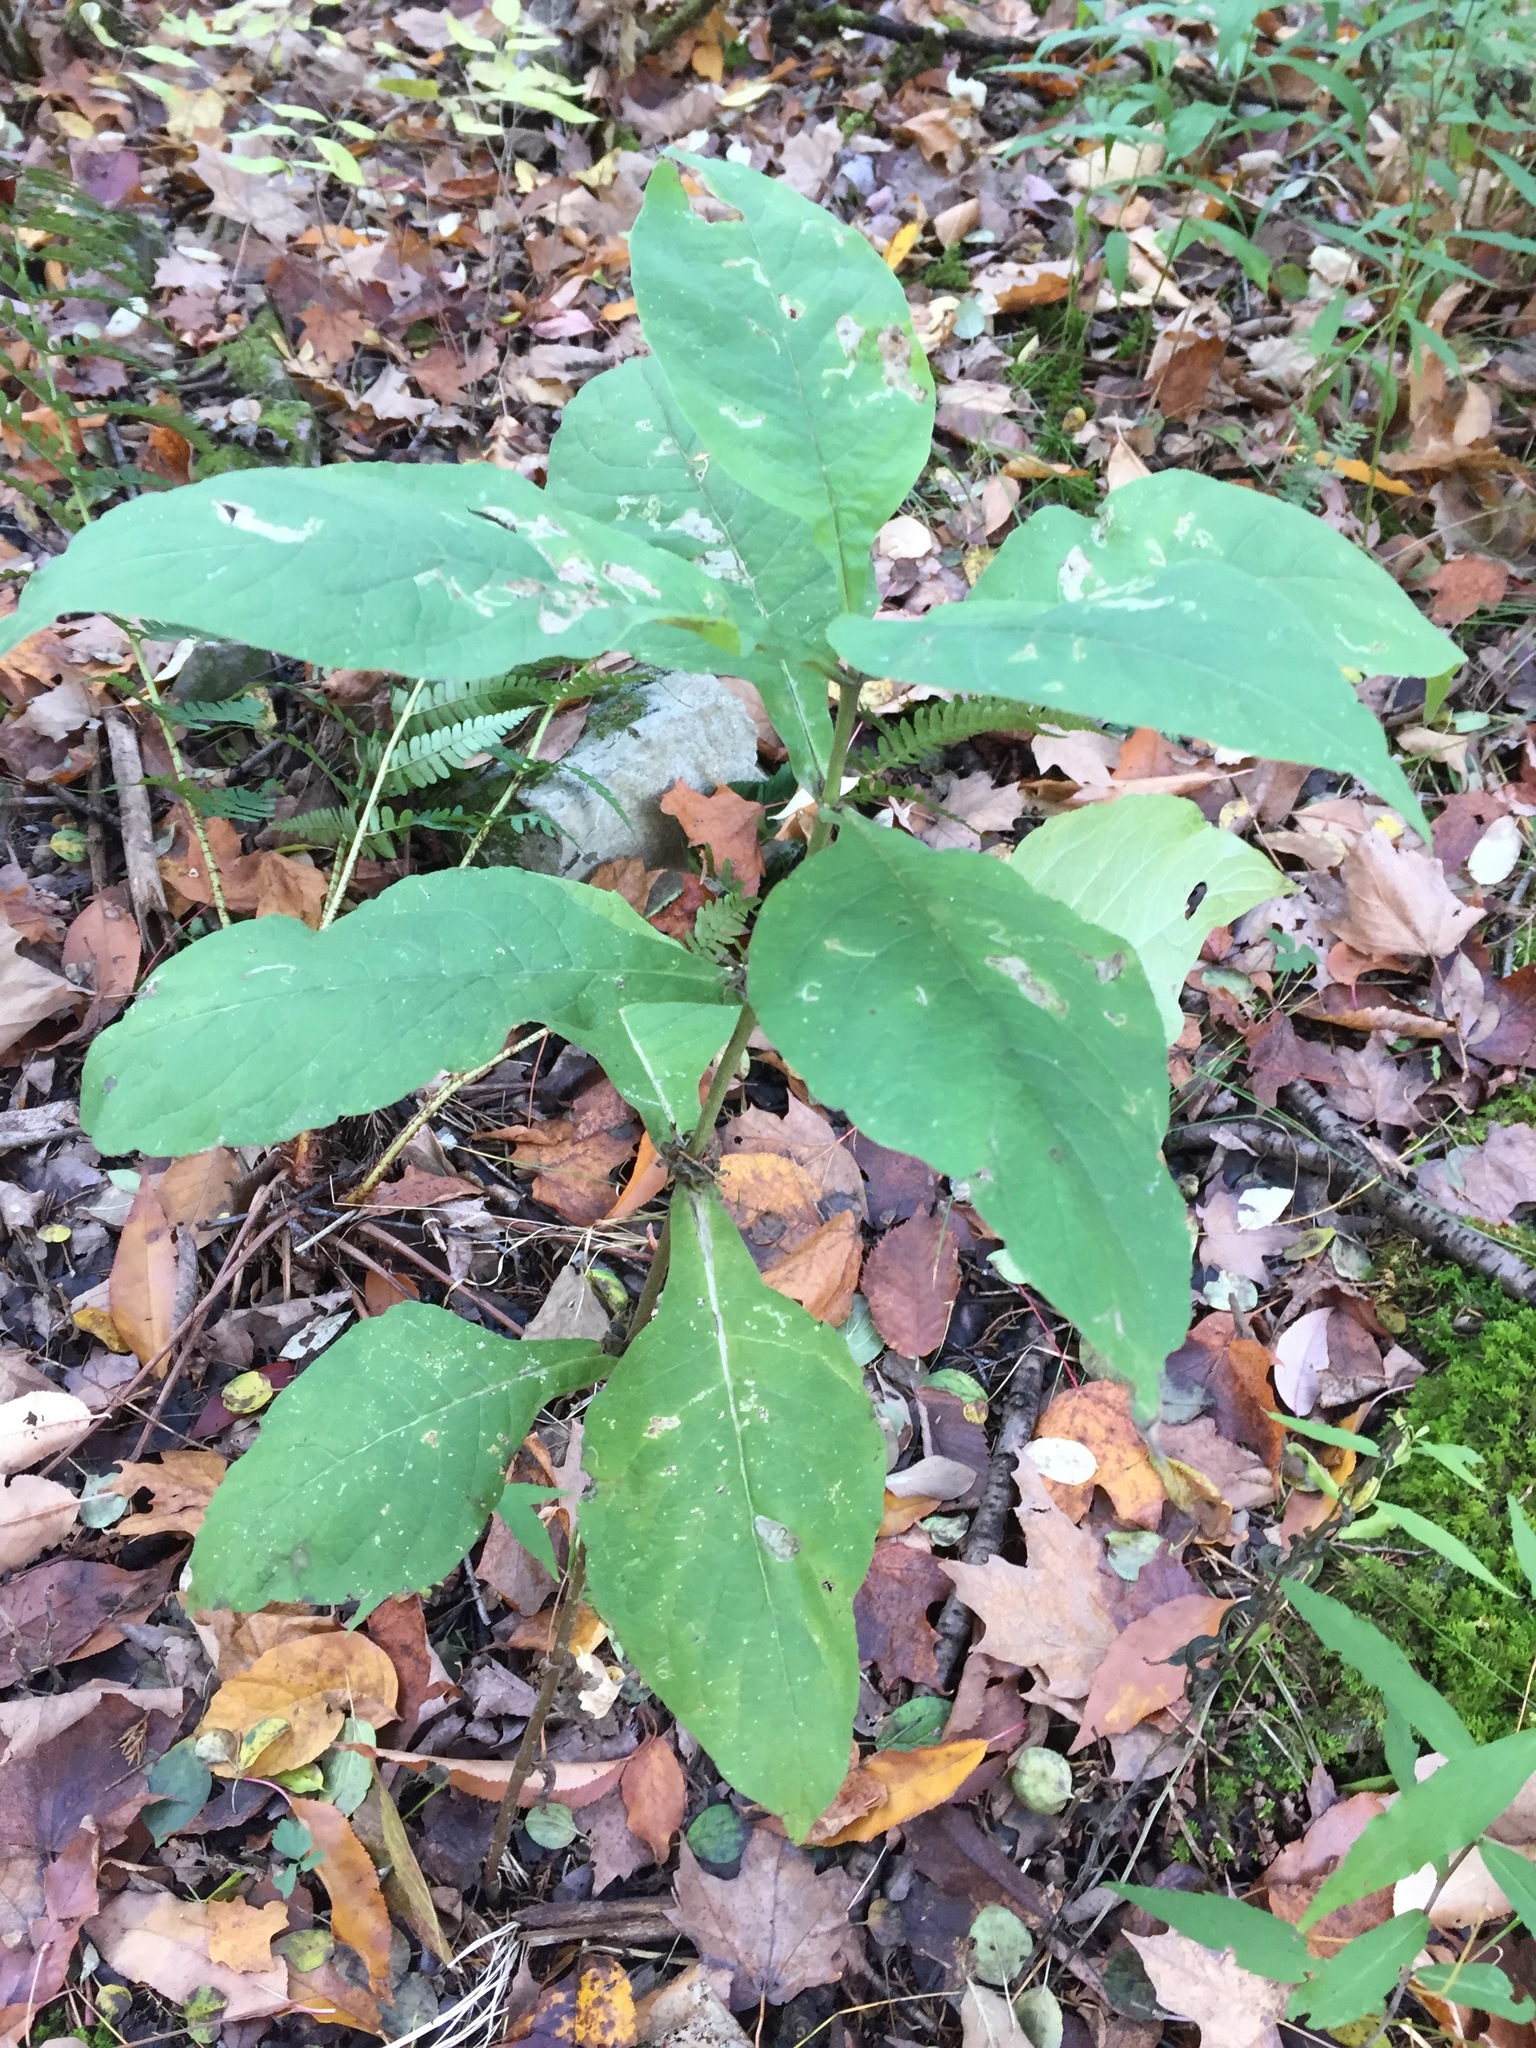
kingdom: Plantae
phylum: Tracheophyta
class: Magnoliopsida
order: Dipsacales
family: Caprifoliaceae
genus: Triosteum
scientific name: Triosteum aurantiacum
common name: Coffee tinker's-weed
